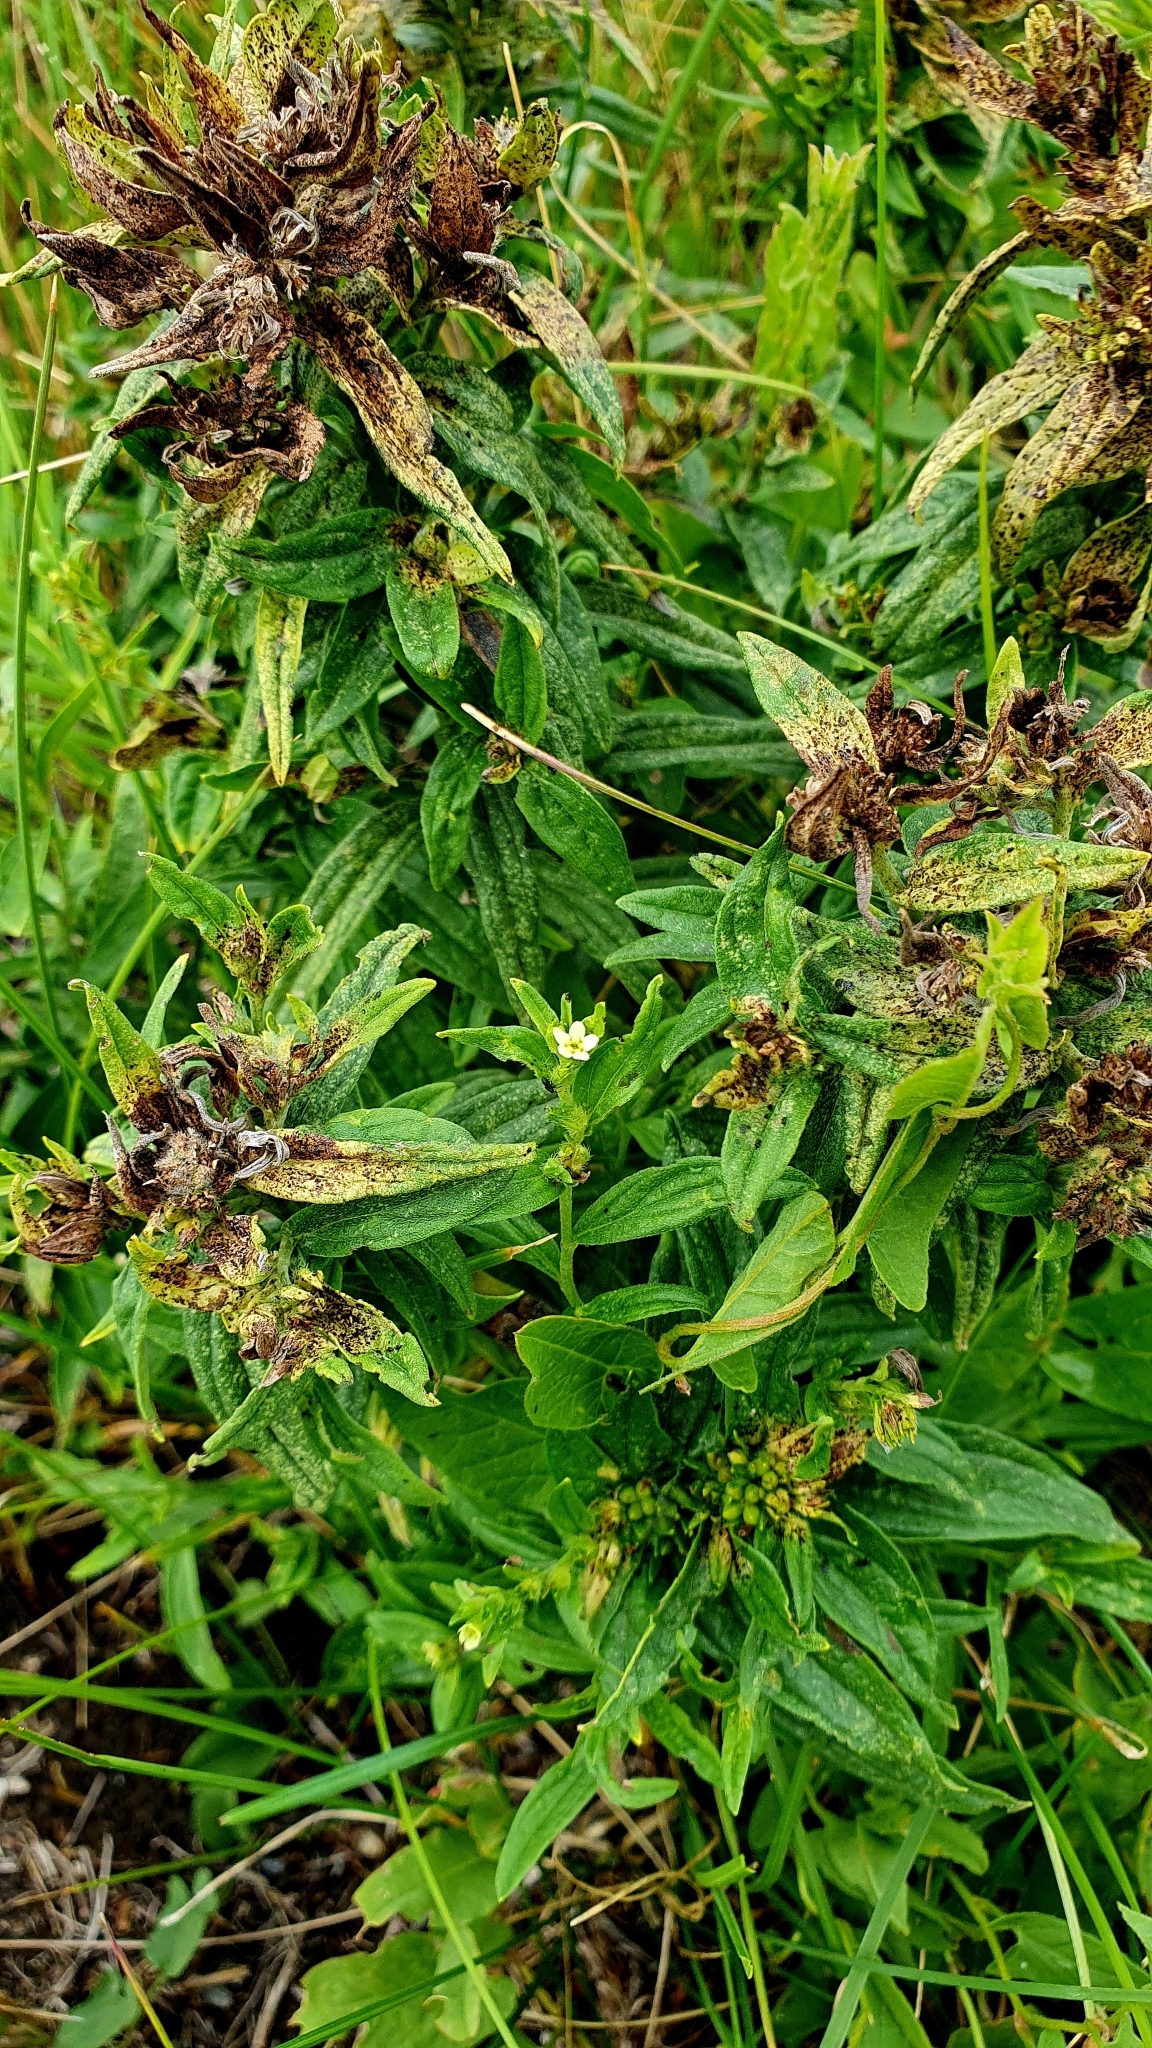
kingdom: Plantae
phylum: Tracheophyta
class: Magnoliopsida
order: Boraginales
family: Boraginaceae
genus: Lithospermum
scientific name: Lithospermum officinale
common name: Common gromwell
